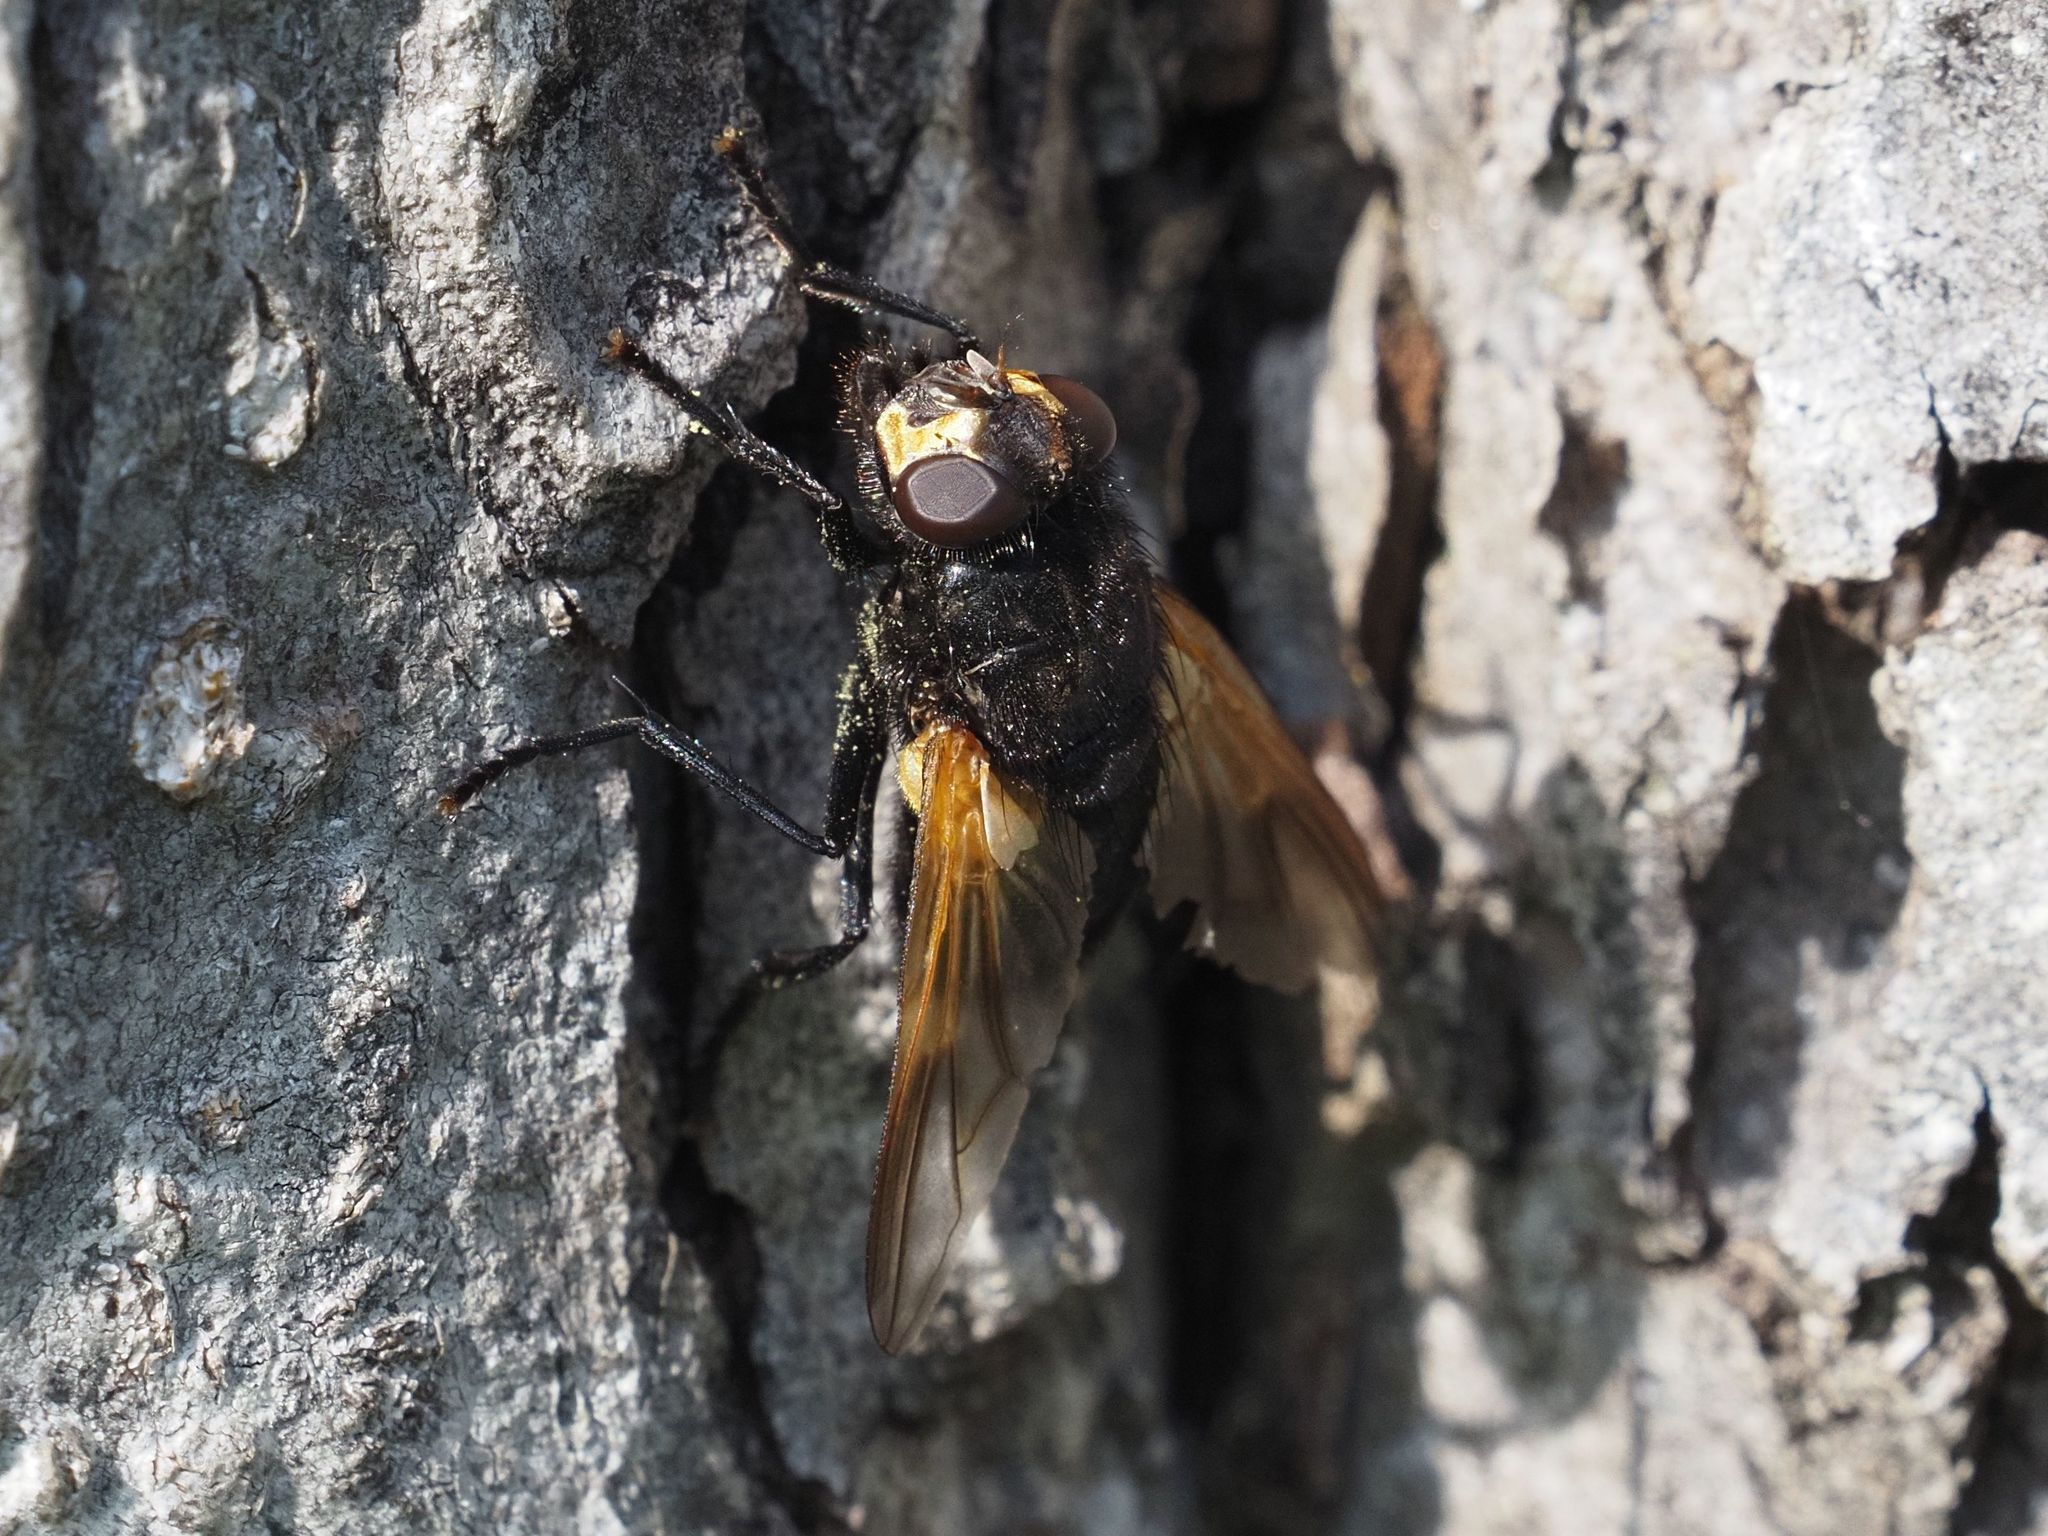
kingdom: Animalia
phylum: Arthropoda
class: Insecta
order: Diptera
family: Muscidae
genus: Mesembrina
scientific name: Mesembrina meridiana
